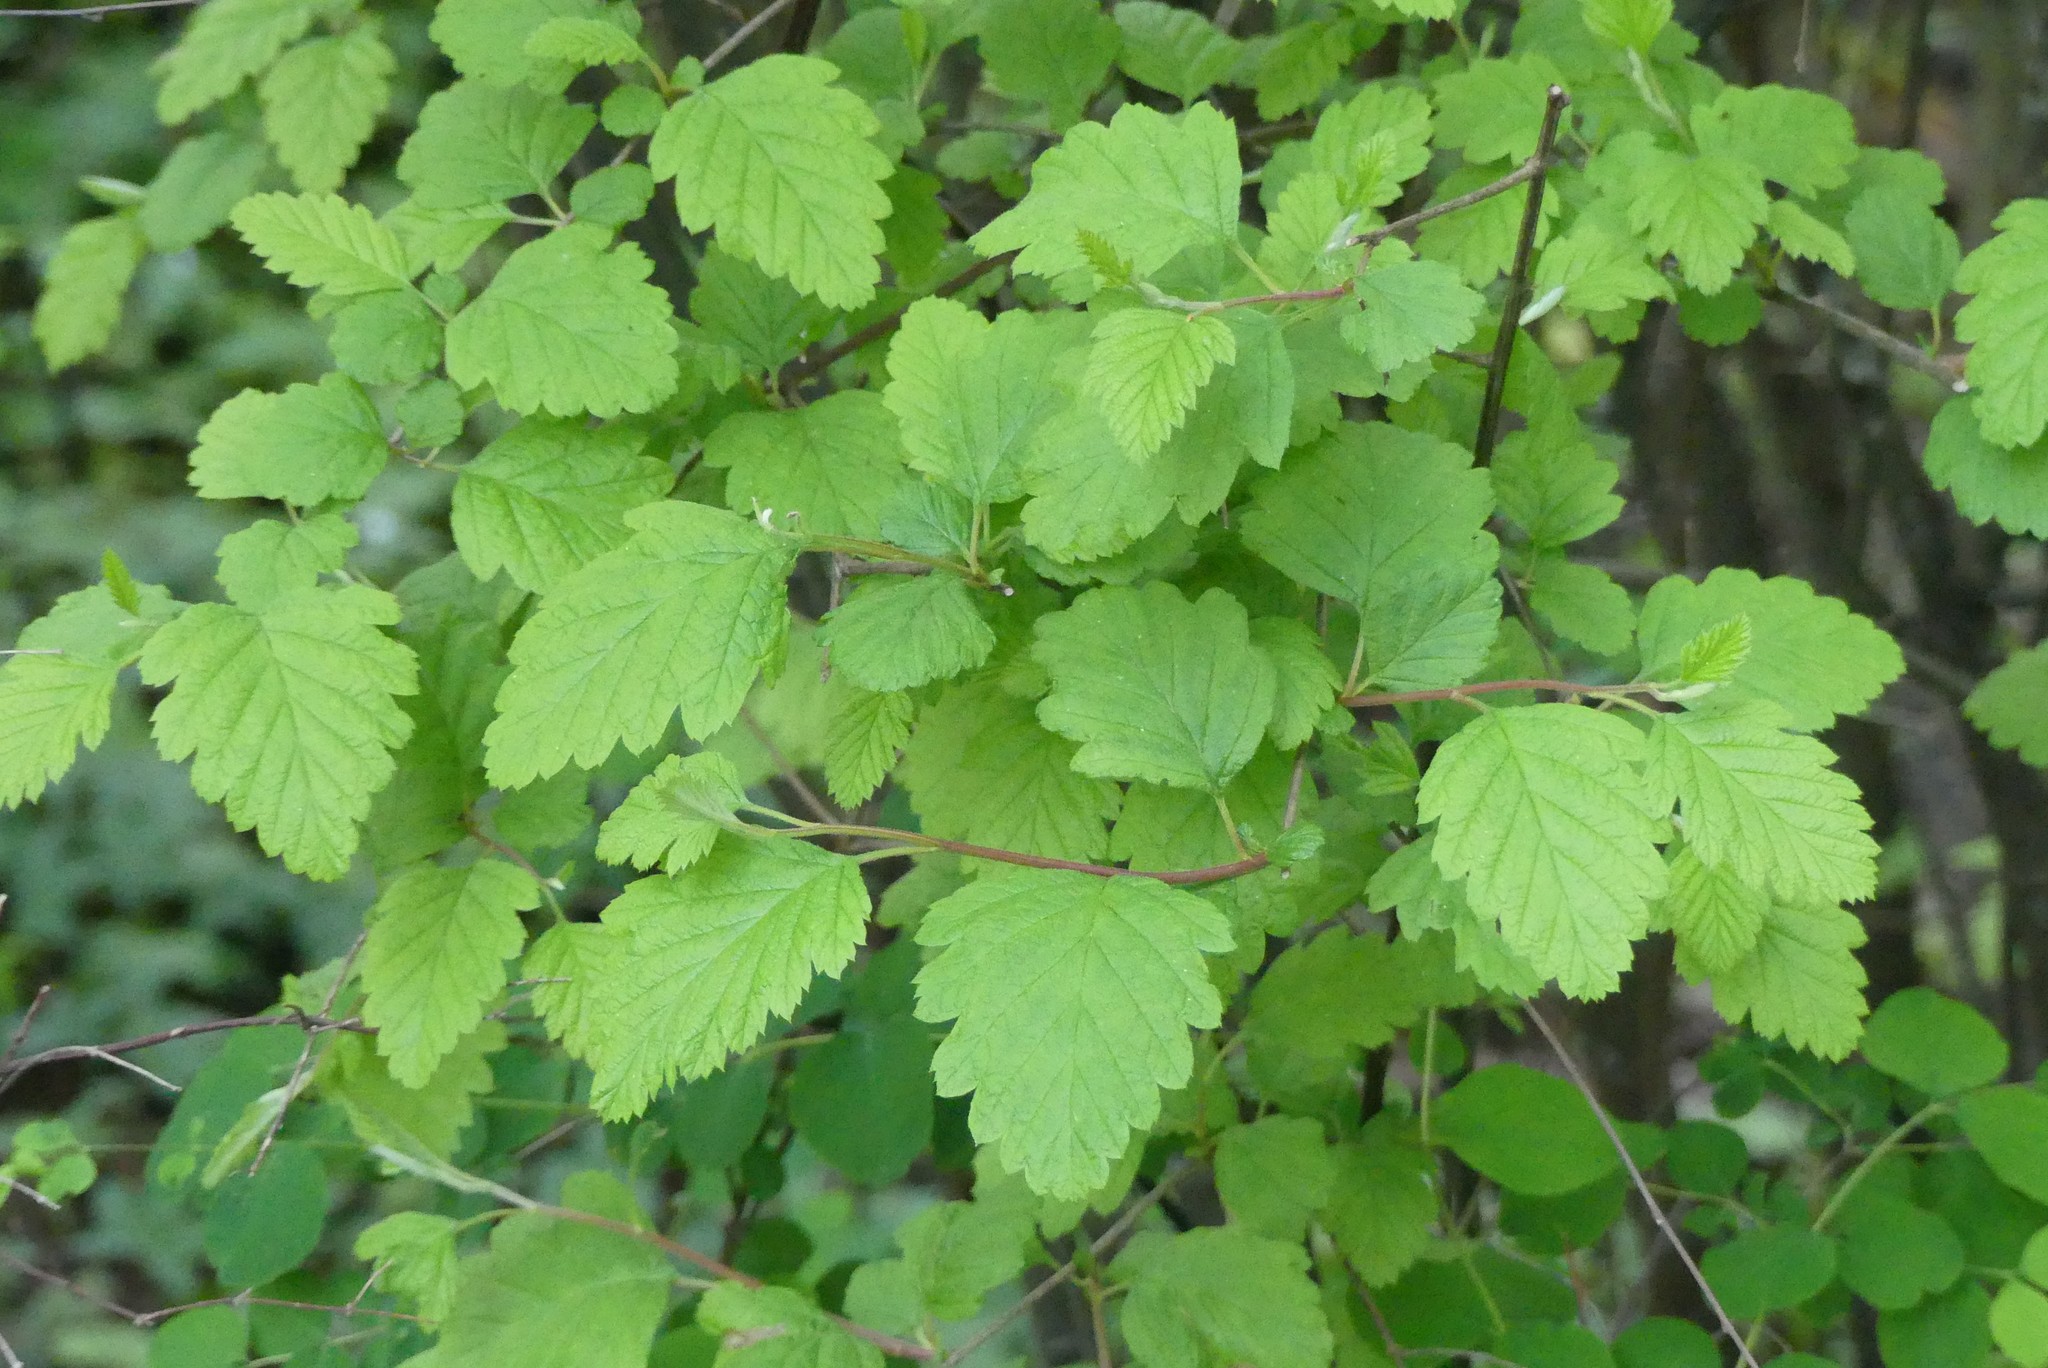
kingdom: Plantae
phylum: Tracheophyta
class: Magnoliopsida
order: Rosales
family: Rosaceae
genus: Holodiscus
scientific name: Holodiscus discolor
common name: Oceanspray
